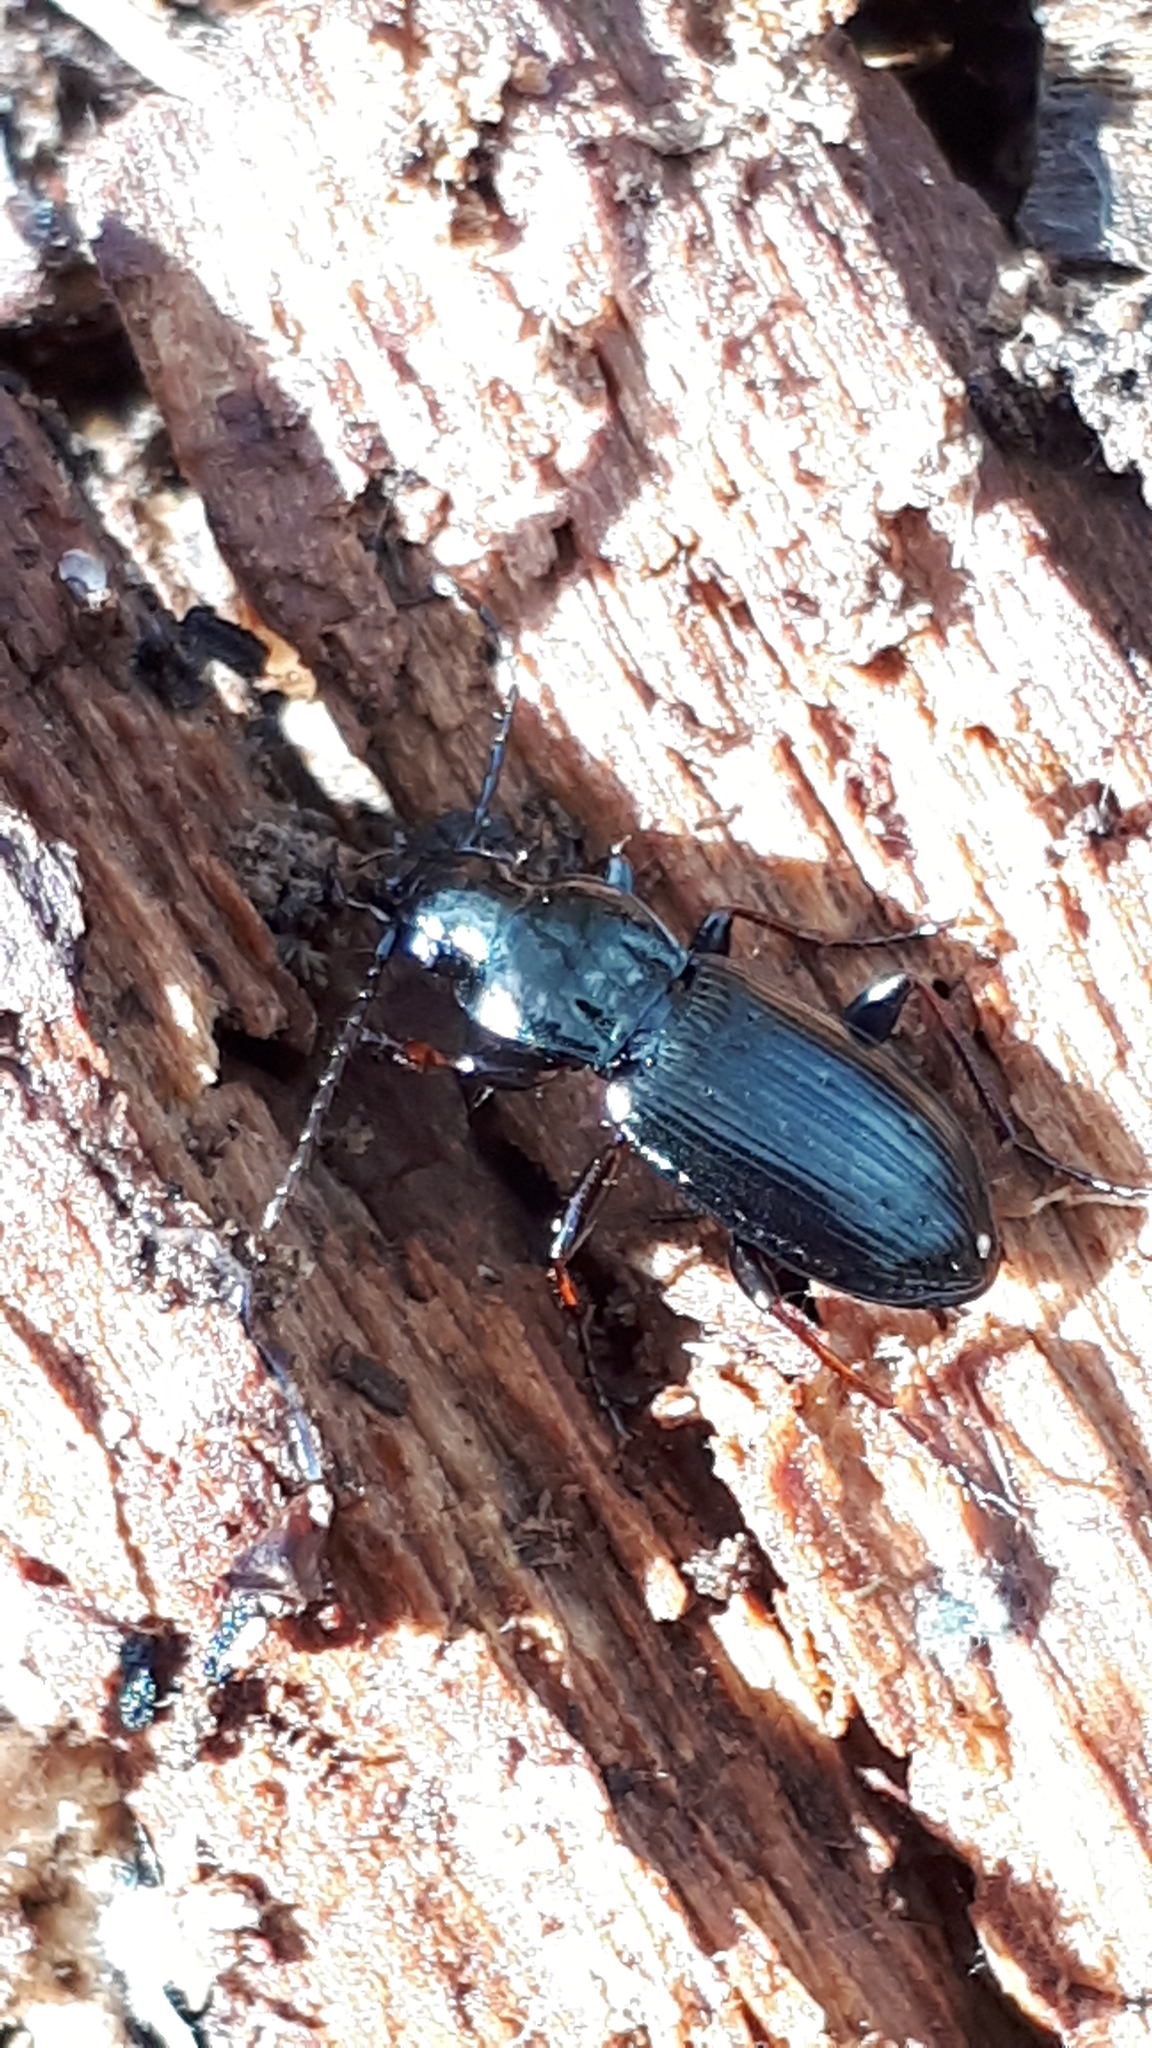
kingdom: Animalia
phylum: Arthropoda
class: Insecta
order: Coleoptera
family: Carabidae
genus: Pterostichus
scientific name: Pterostichus oblongopunctatus
